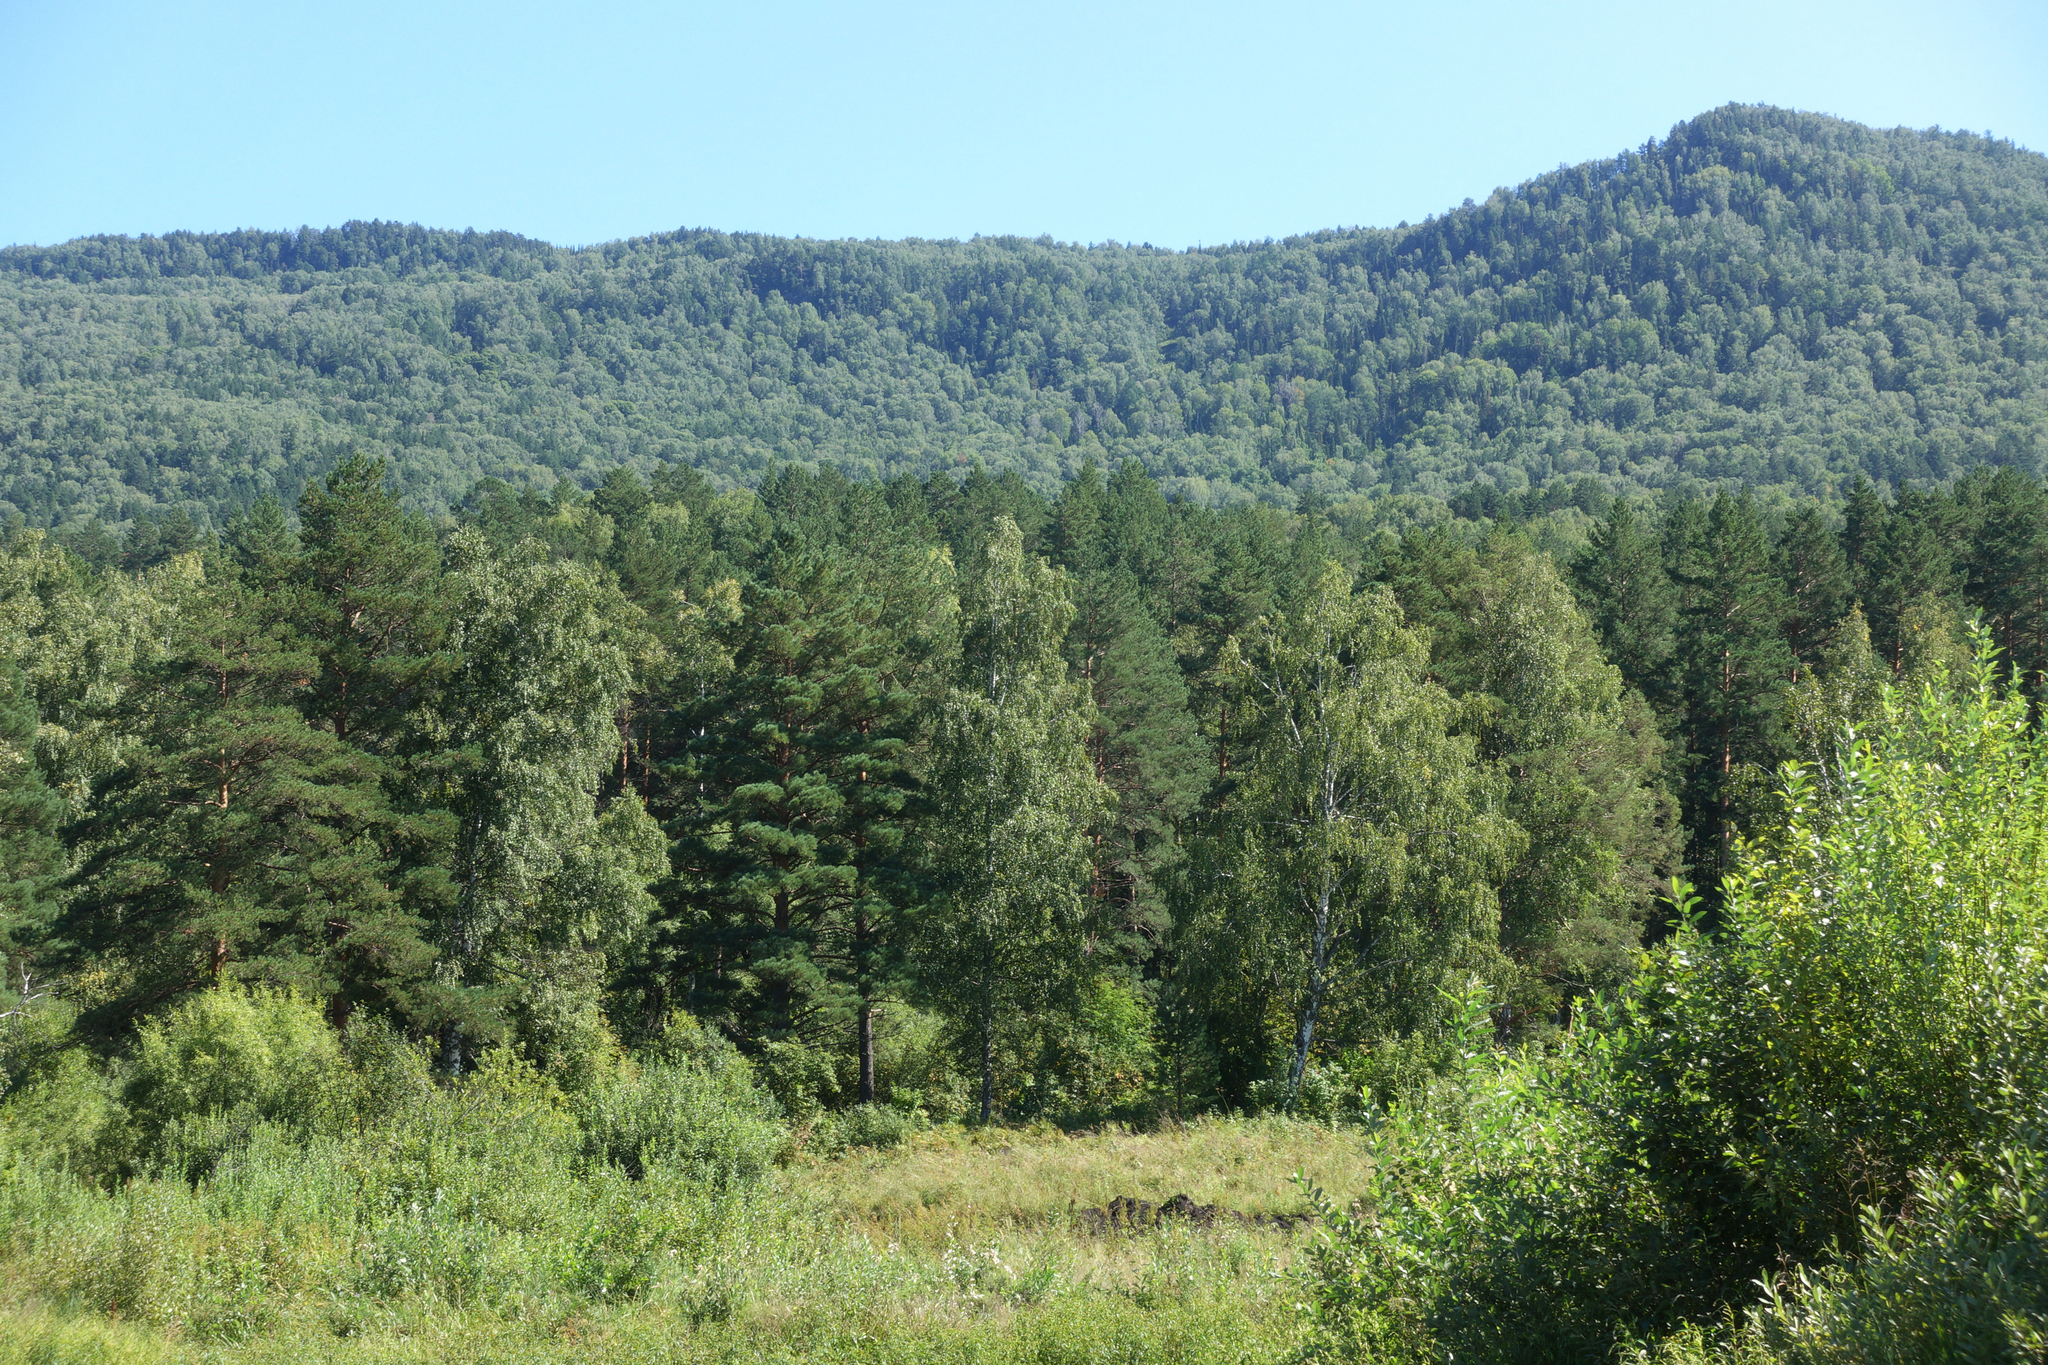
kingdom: Plantae
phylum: Tracheophyta
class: Magnoliopsida
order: Fagales
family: Betulaceae
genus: Betula
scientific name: Betula pendula
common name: Silver birch
